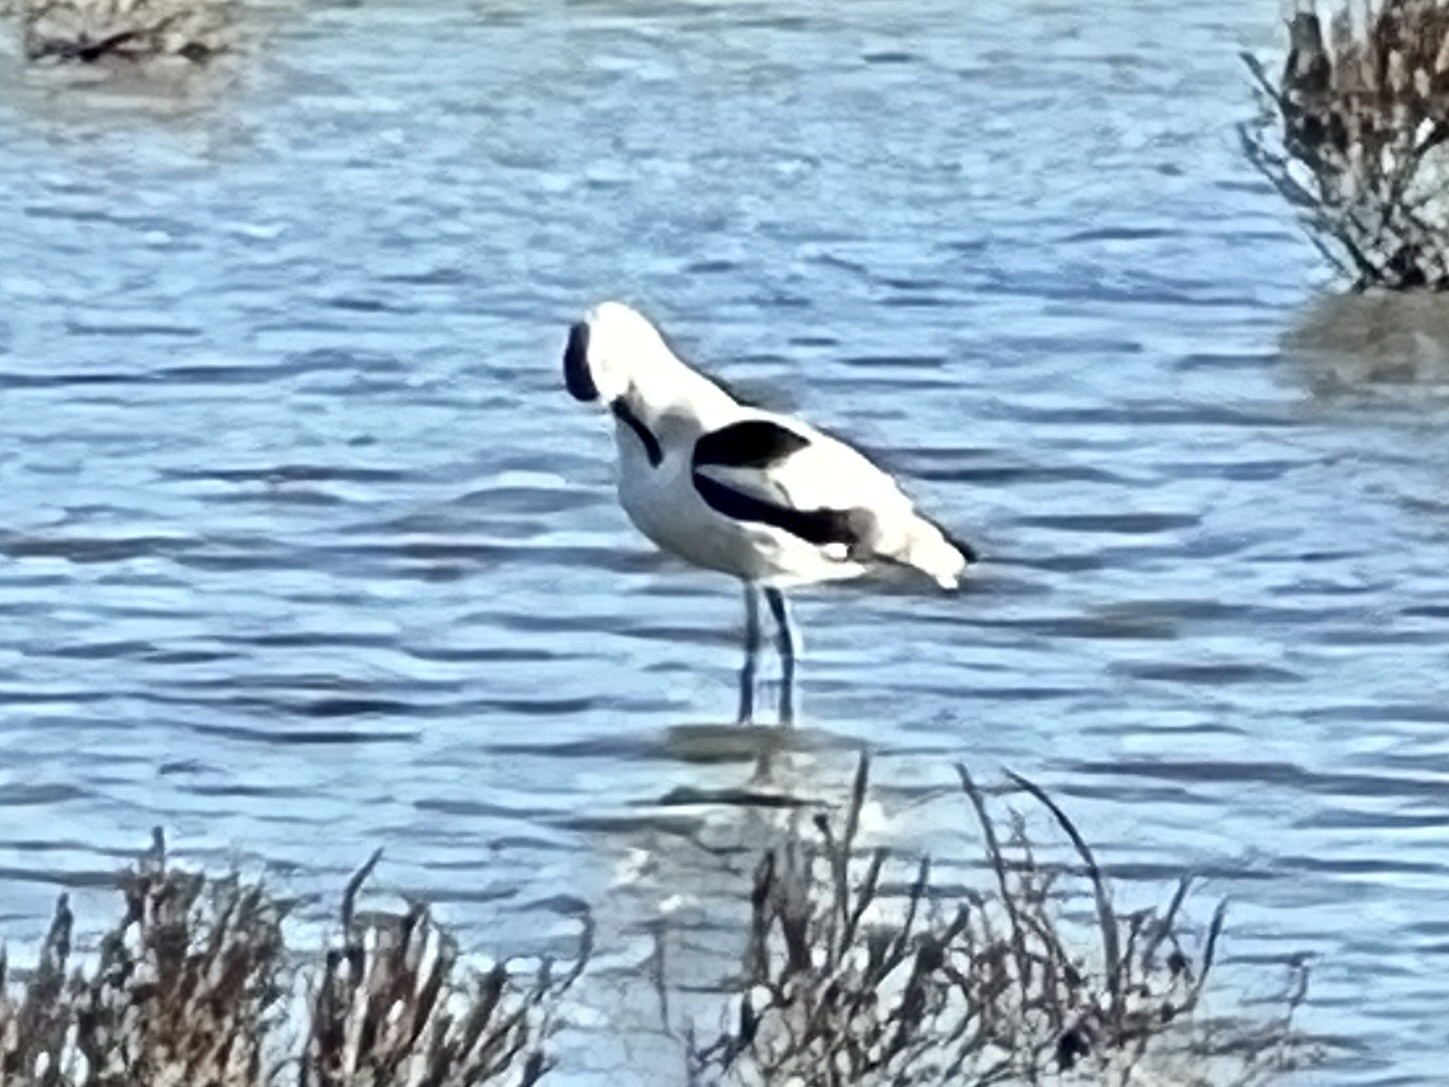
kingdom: Animalia
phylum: Chordata
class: Aves
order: Charadriiformes
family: Recurvirostridae
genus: Recurvirostra
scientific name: Recurvirostra americana
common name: American avocet
